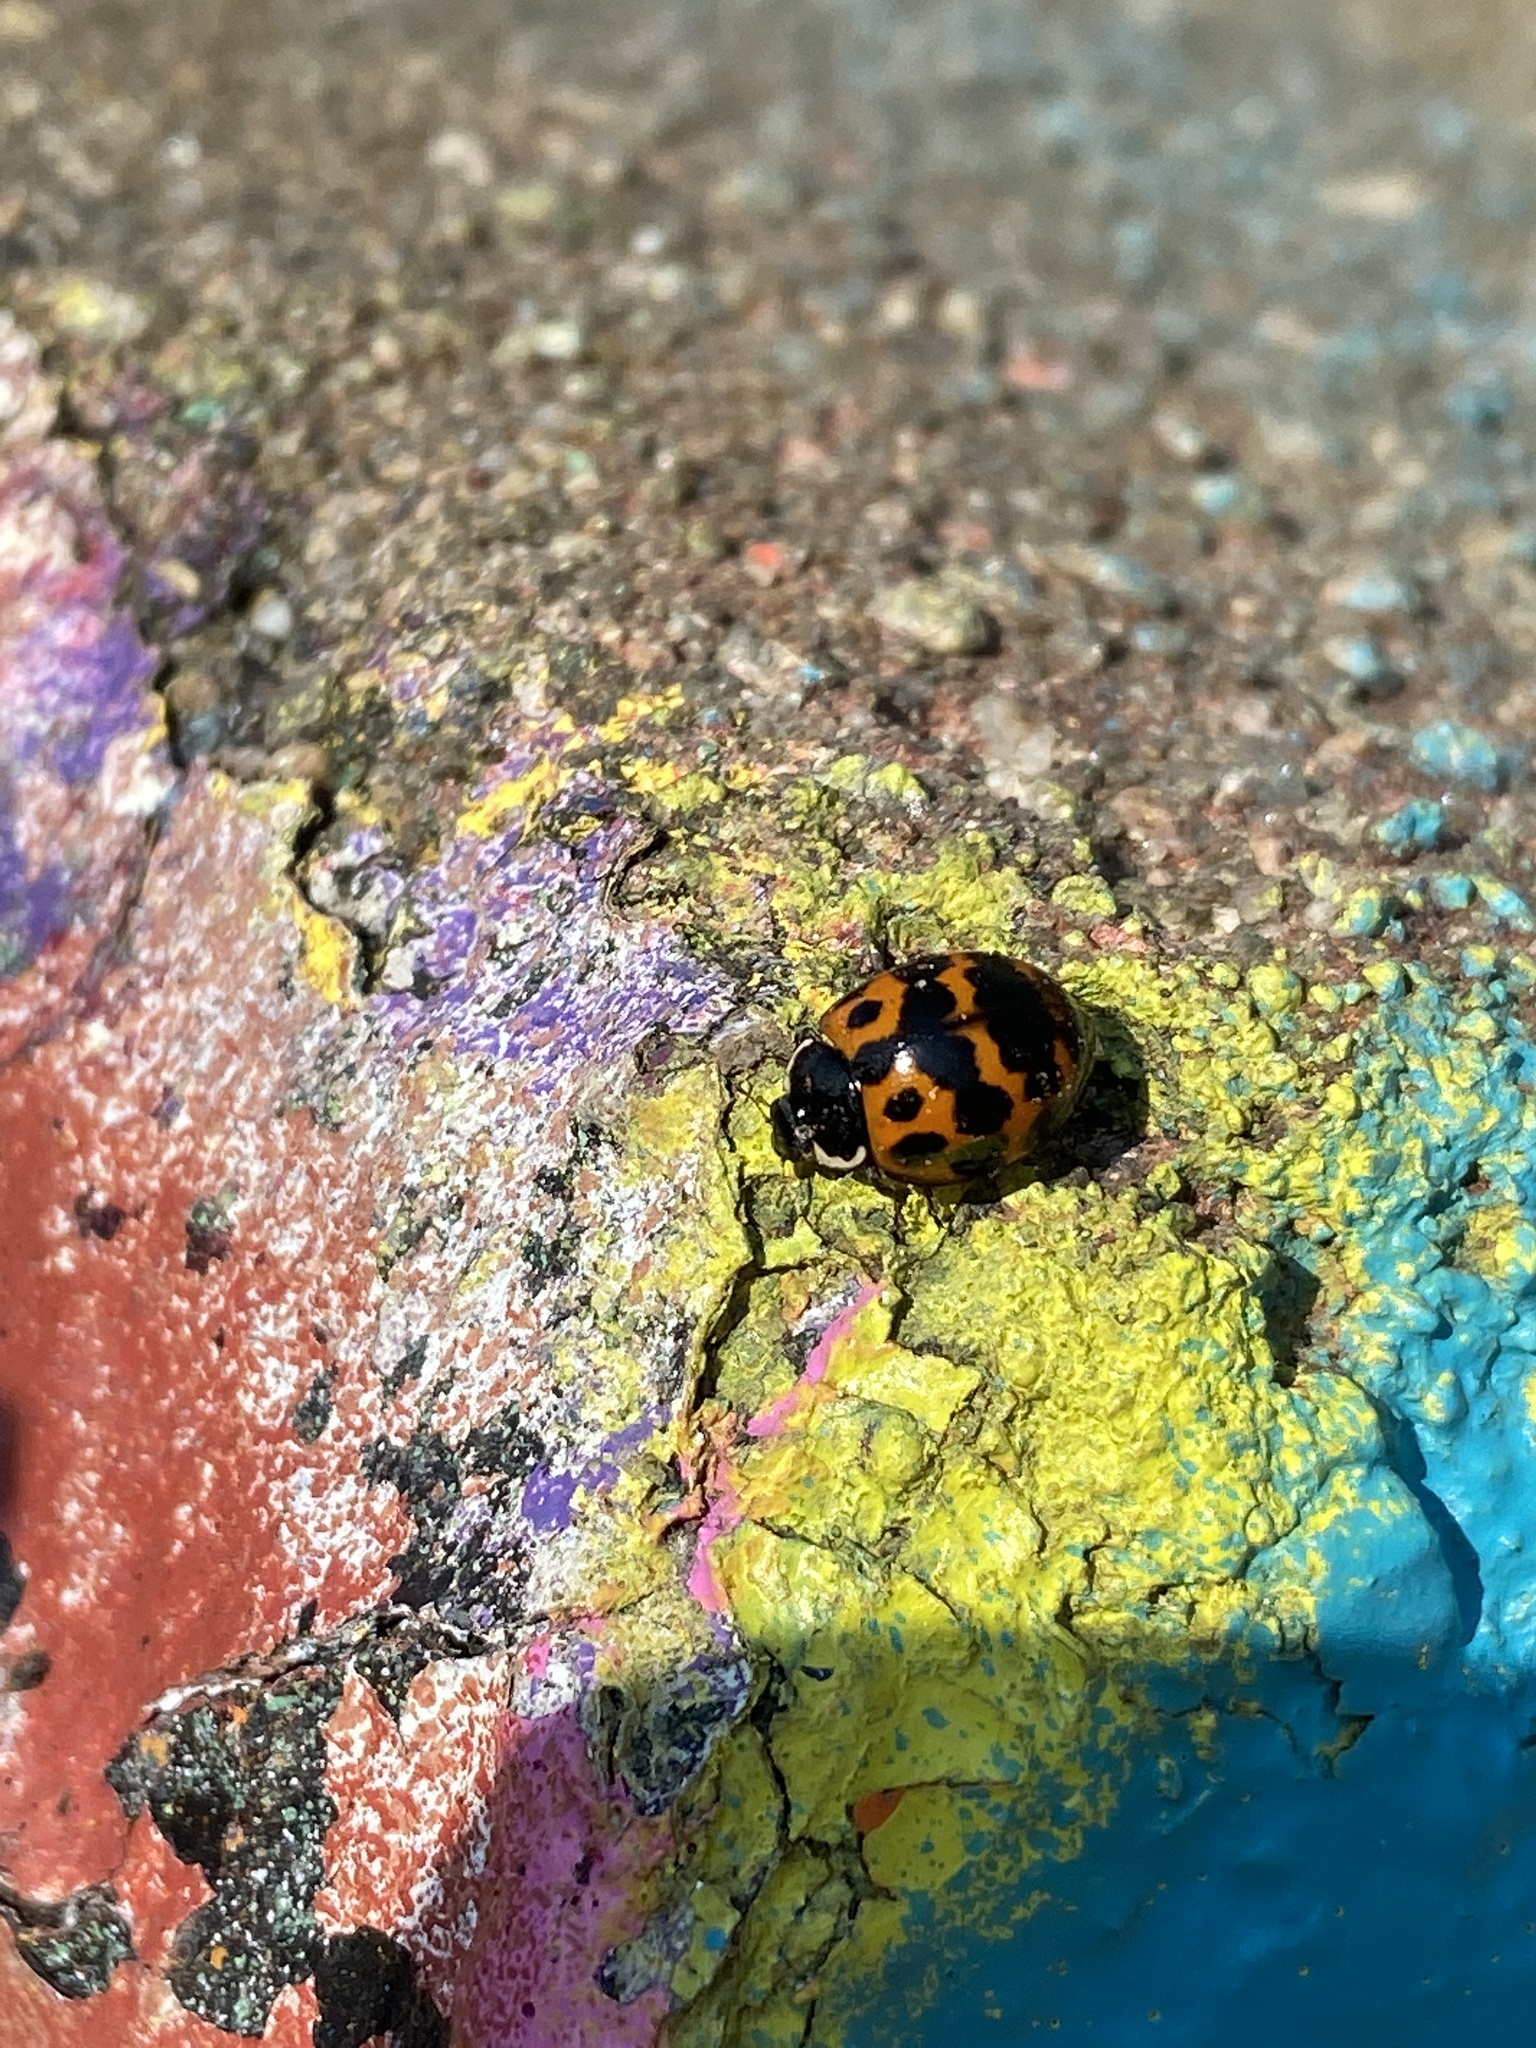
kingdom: Animalia
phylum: Arthropoda
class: Insecta
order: Coleoptera
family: Coccinellidae
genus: Harmonia
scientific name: Harmonia axyridis
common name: Harlequin ladybird
